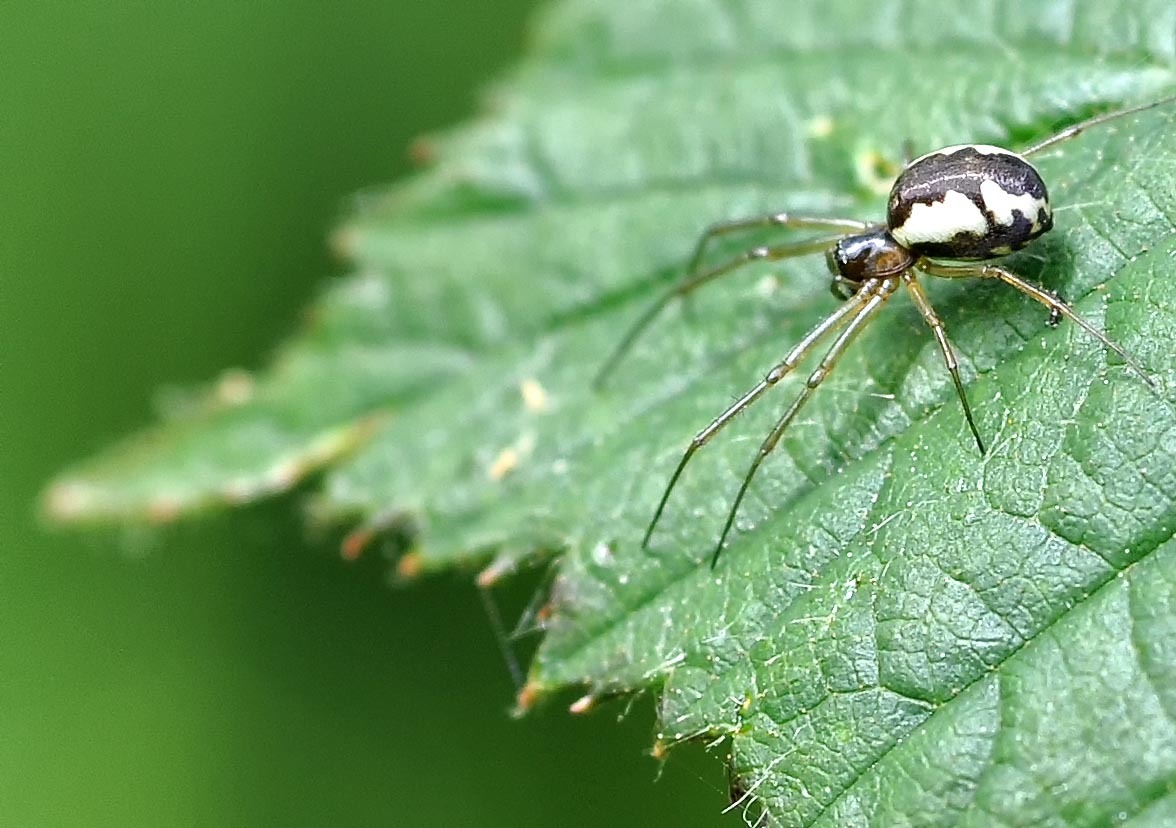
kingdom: Animalia
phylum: Arthropoda
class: Arachnida
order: Araneae
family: Linyphiidae
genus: Neriene
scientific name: Neriene peltata
